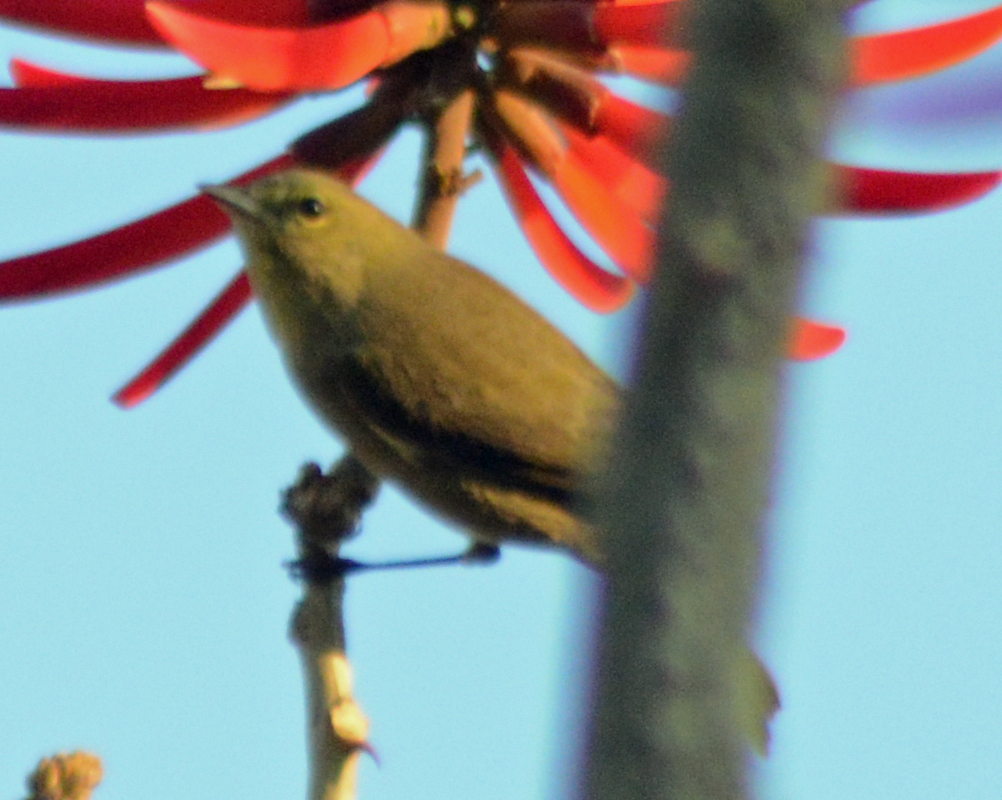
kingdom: Animalia
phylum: Chordata
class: Aves
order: Passeriformes
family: Parulidae
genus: Leiothlypis
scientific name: Leiothlypis celata
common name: Orange-crowned warbler
